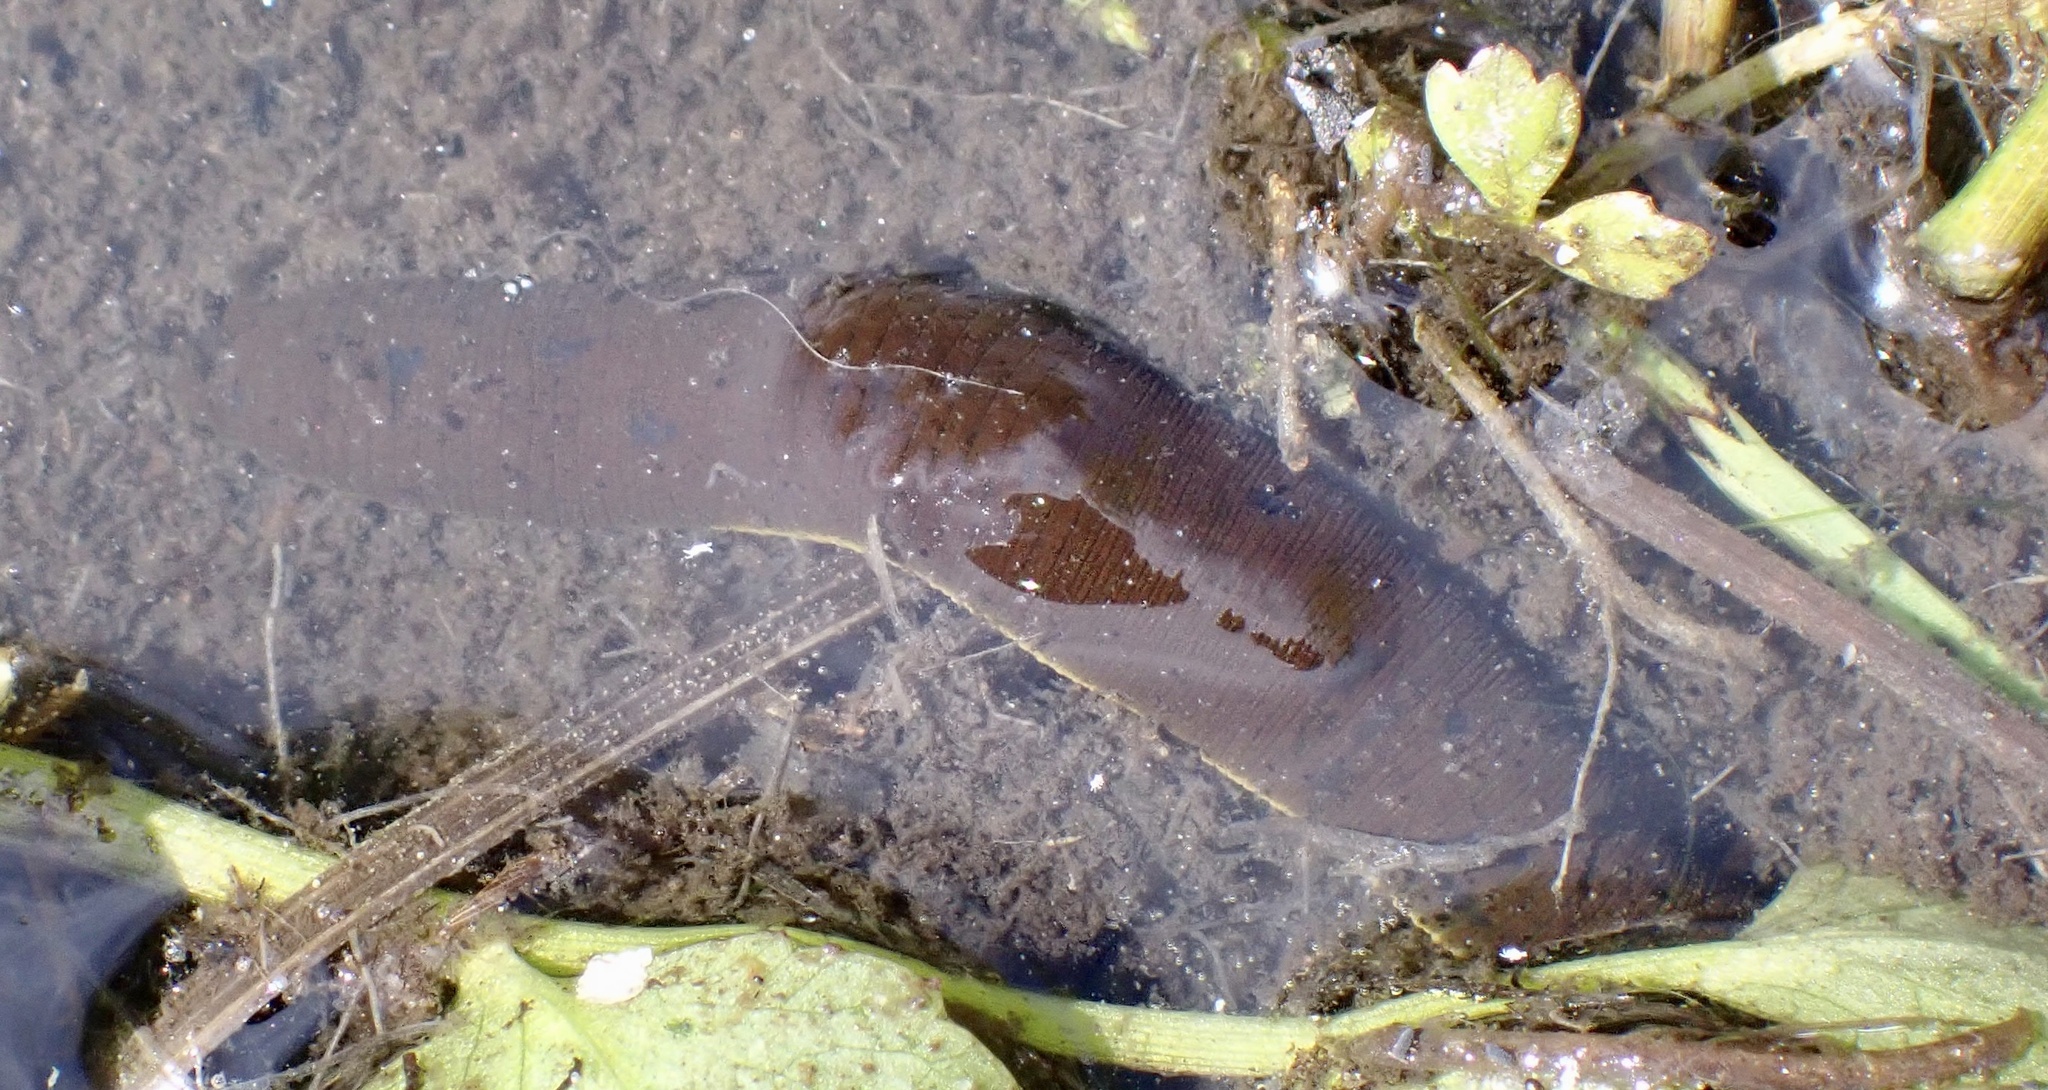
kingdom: Animalia
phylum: Annelida
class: Clitellata
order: Arhynchobdellida
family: Haemopidae
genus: Haemopis
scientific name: Haemopis sanguisuga
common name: Horse leech
